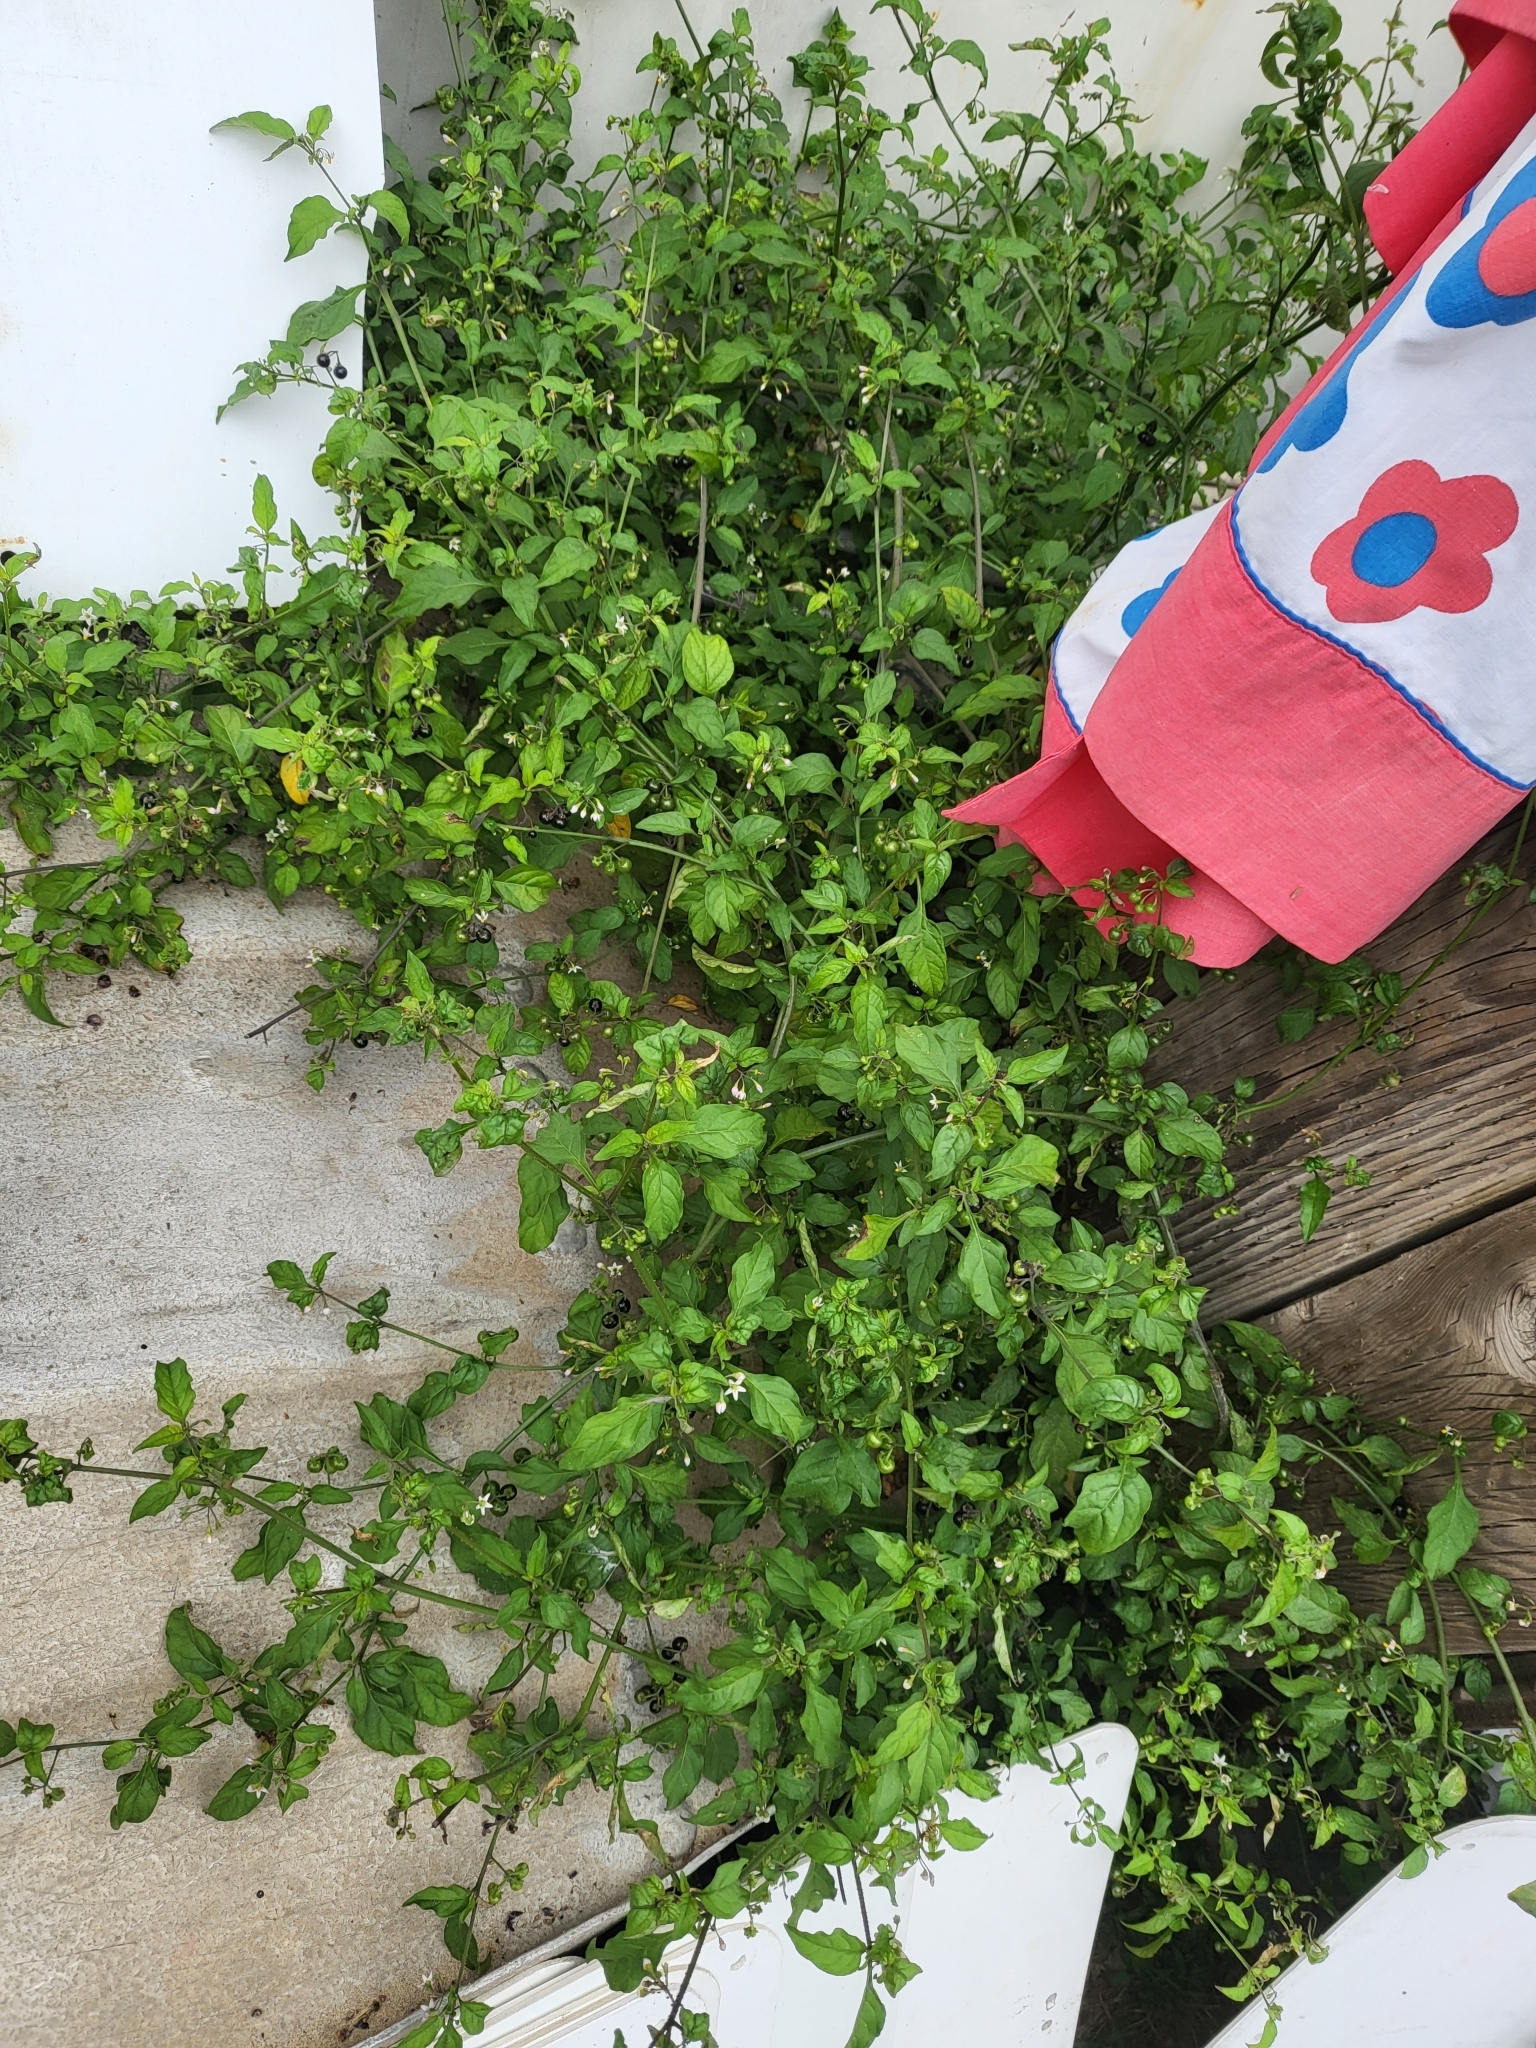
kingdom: Plantae
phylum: Tracheophyta
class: Magnoliopsida
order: Solanales
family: Solanaceae
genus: Solanum
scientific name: Solanum americanum
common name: American black nightshade
